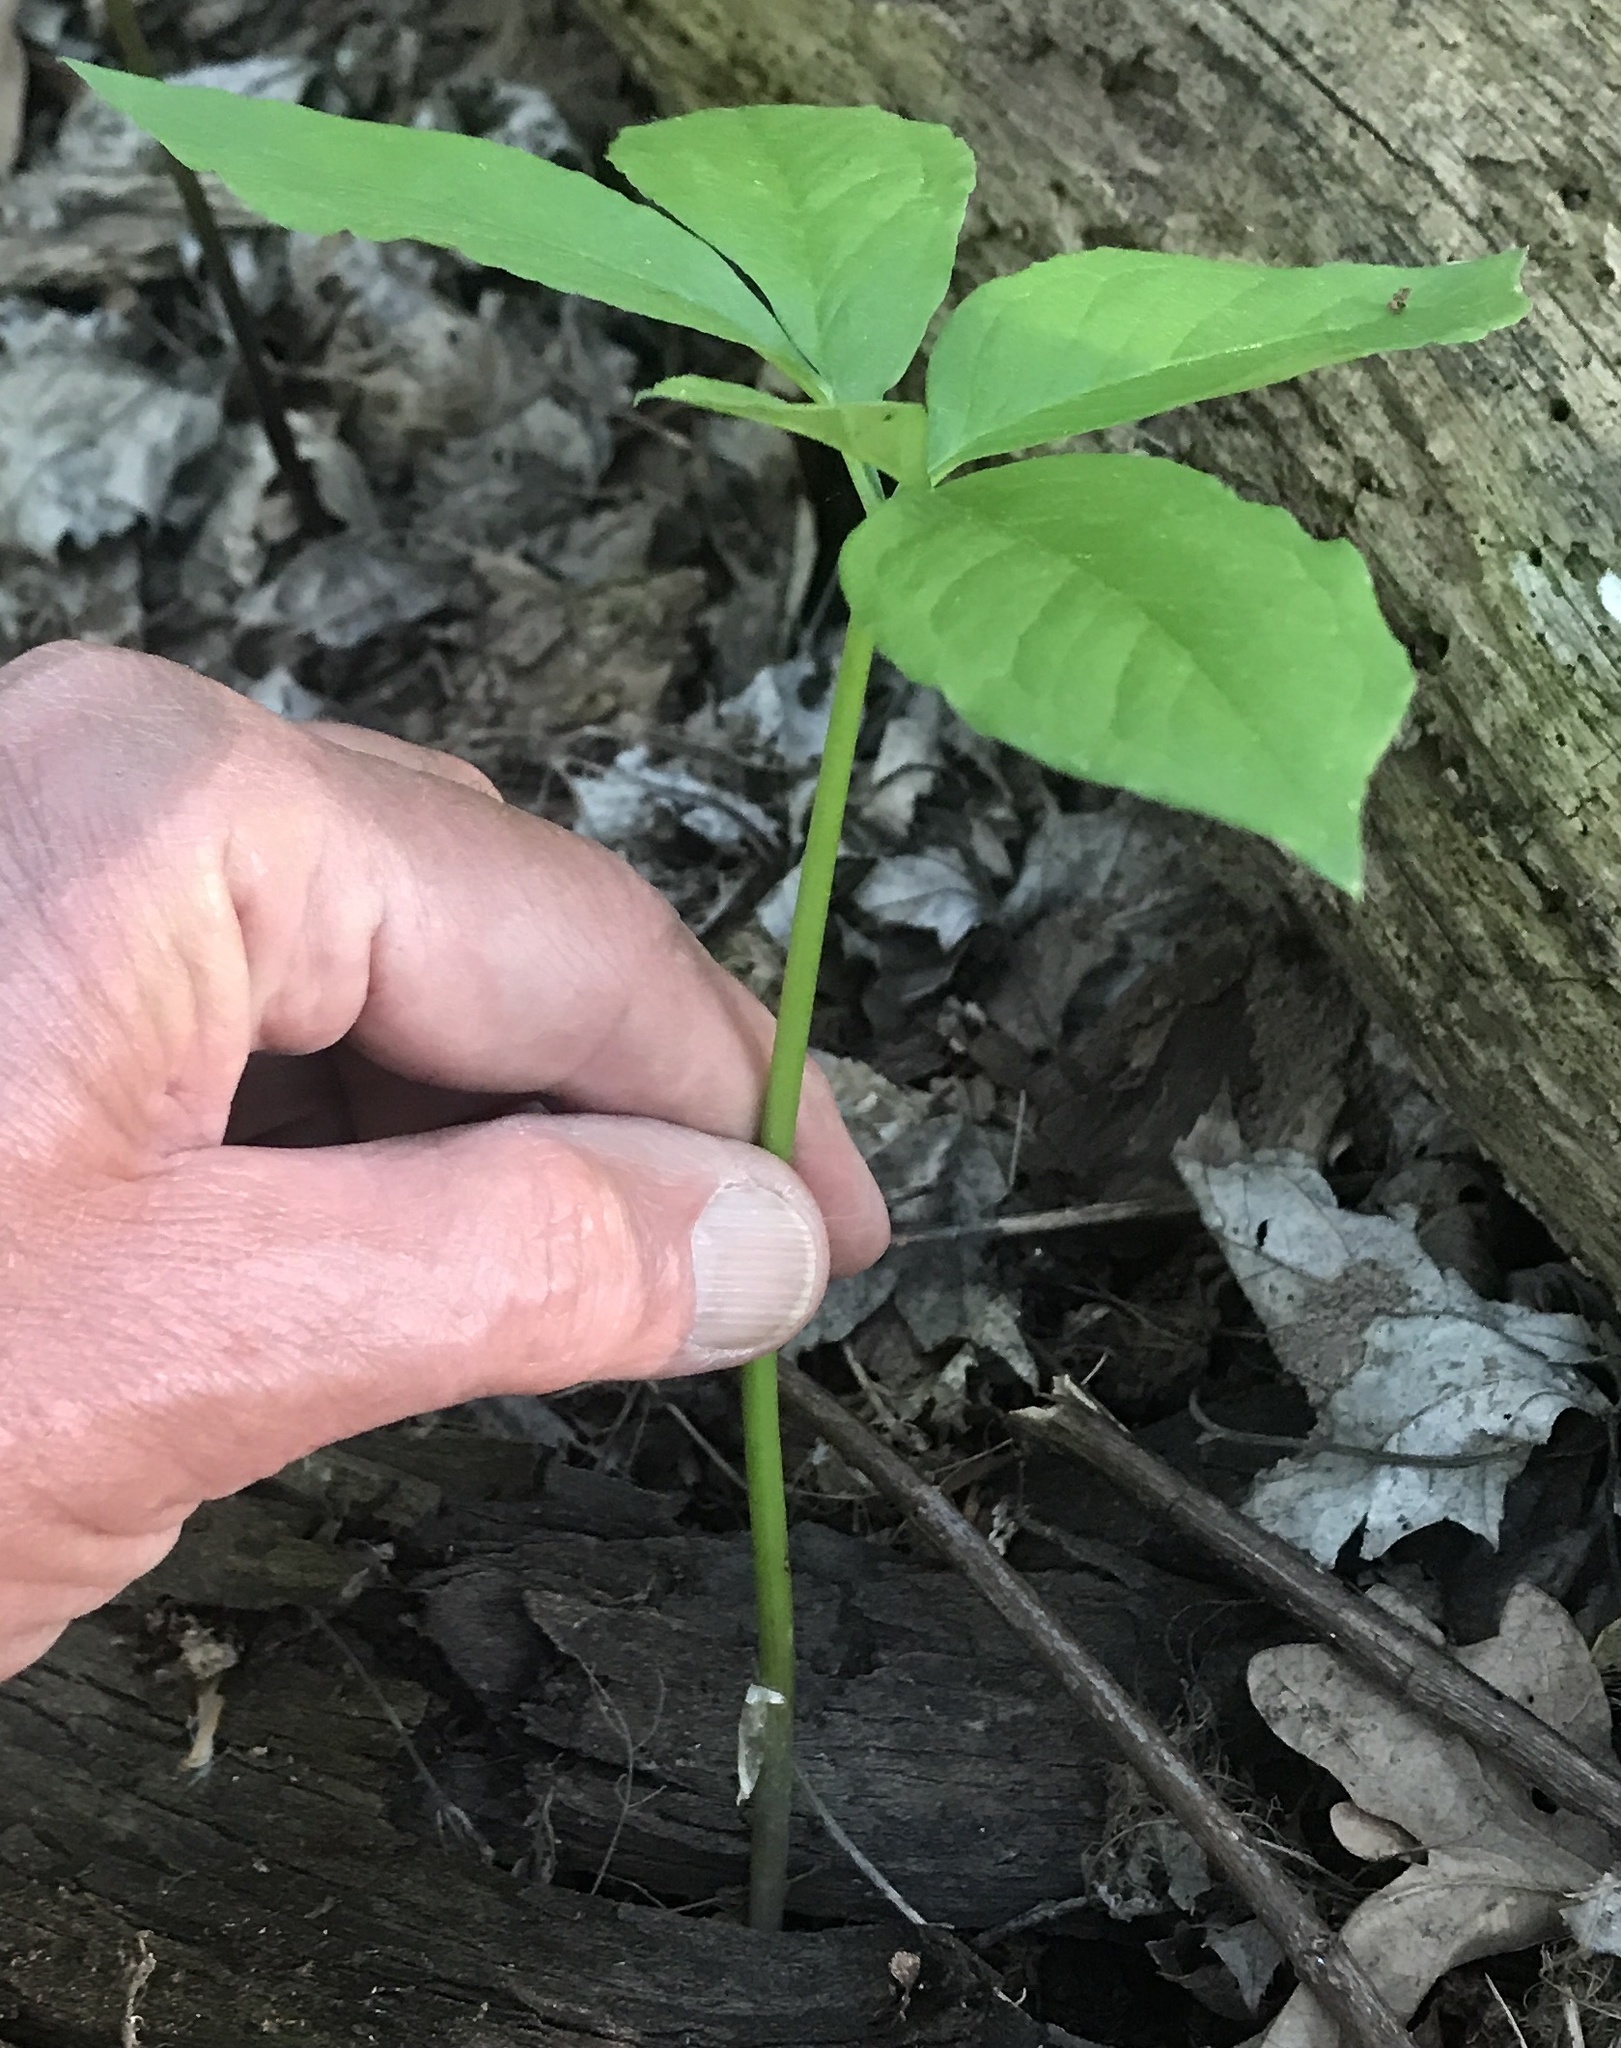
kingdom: Plantae
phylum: Tracheophyta
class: Liliopsida
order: Alismatales
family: Araceae
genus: Arisaema
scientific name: Arisaema dracontium
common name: Dragon-arum
